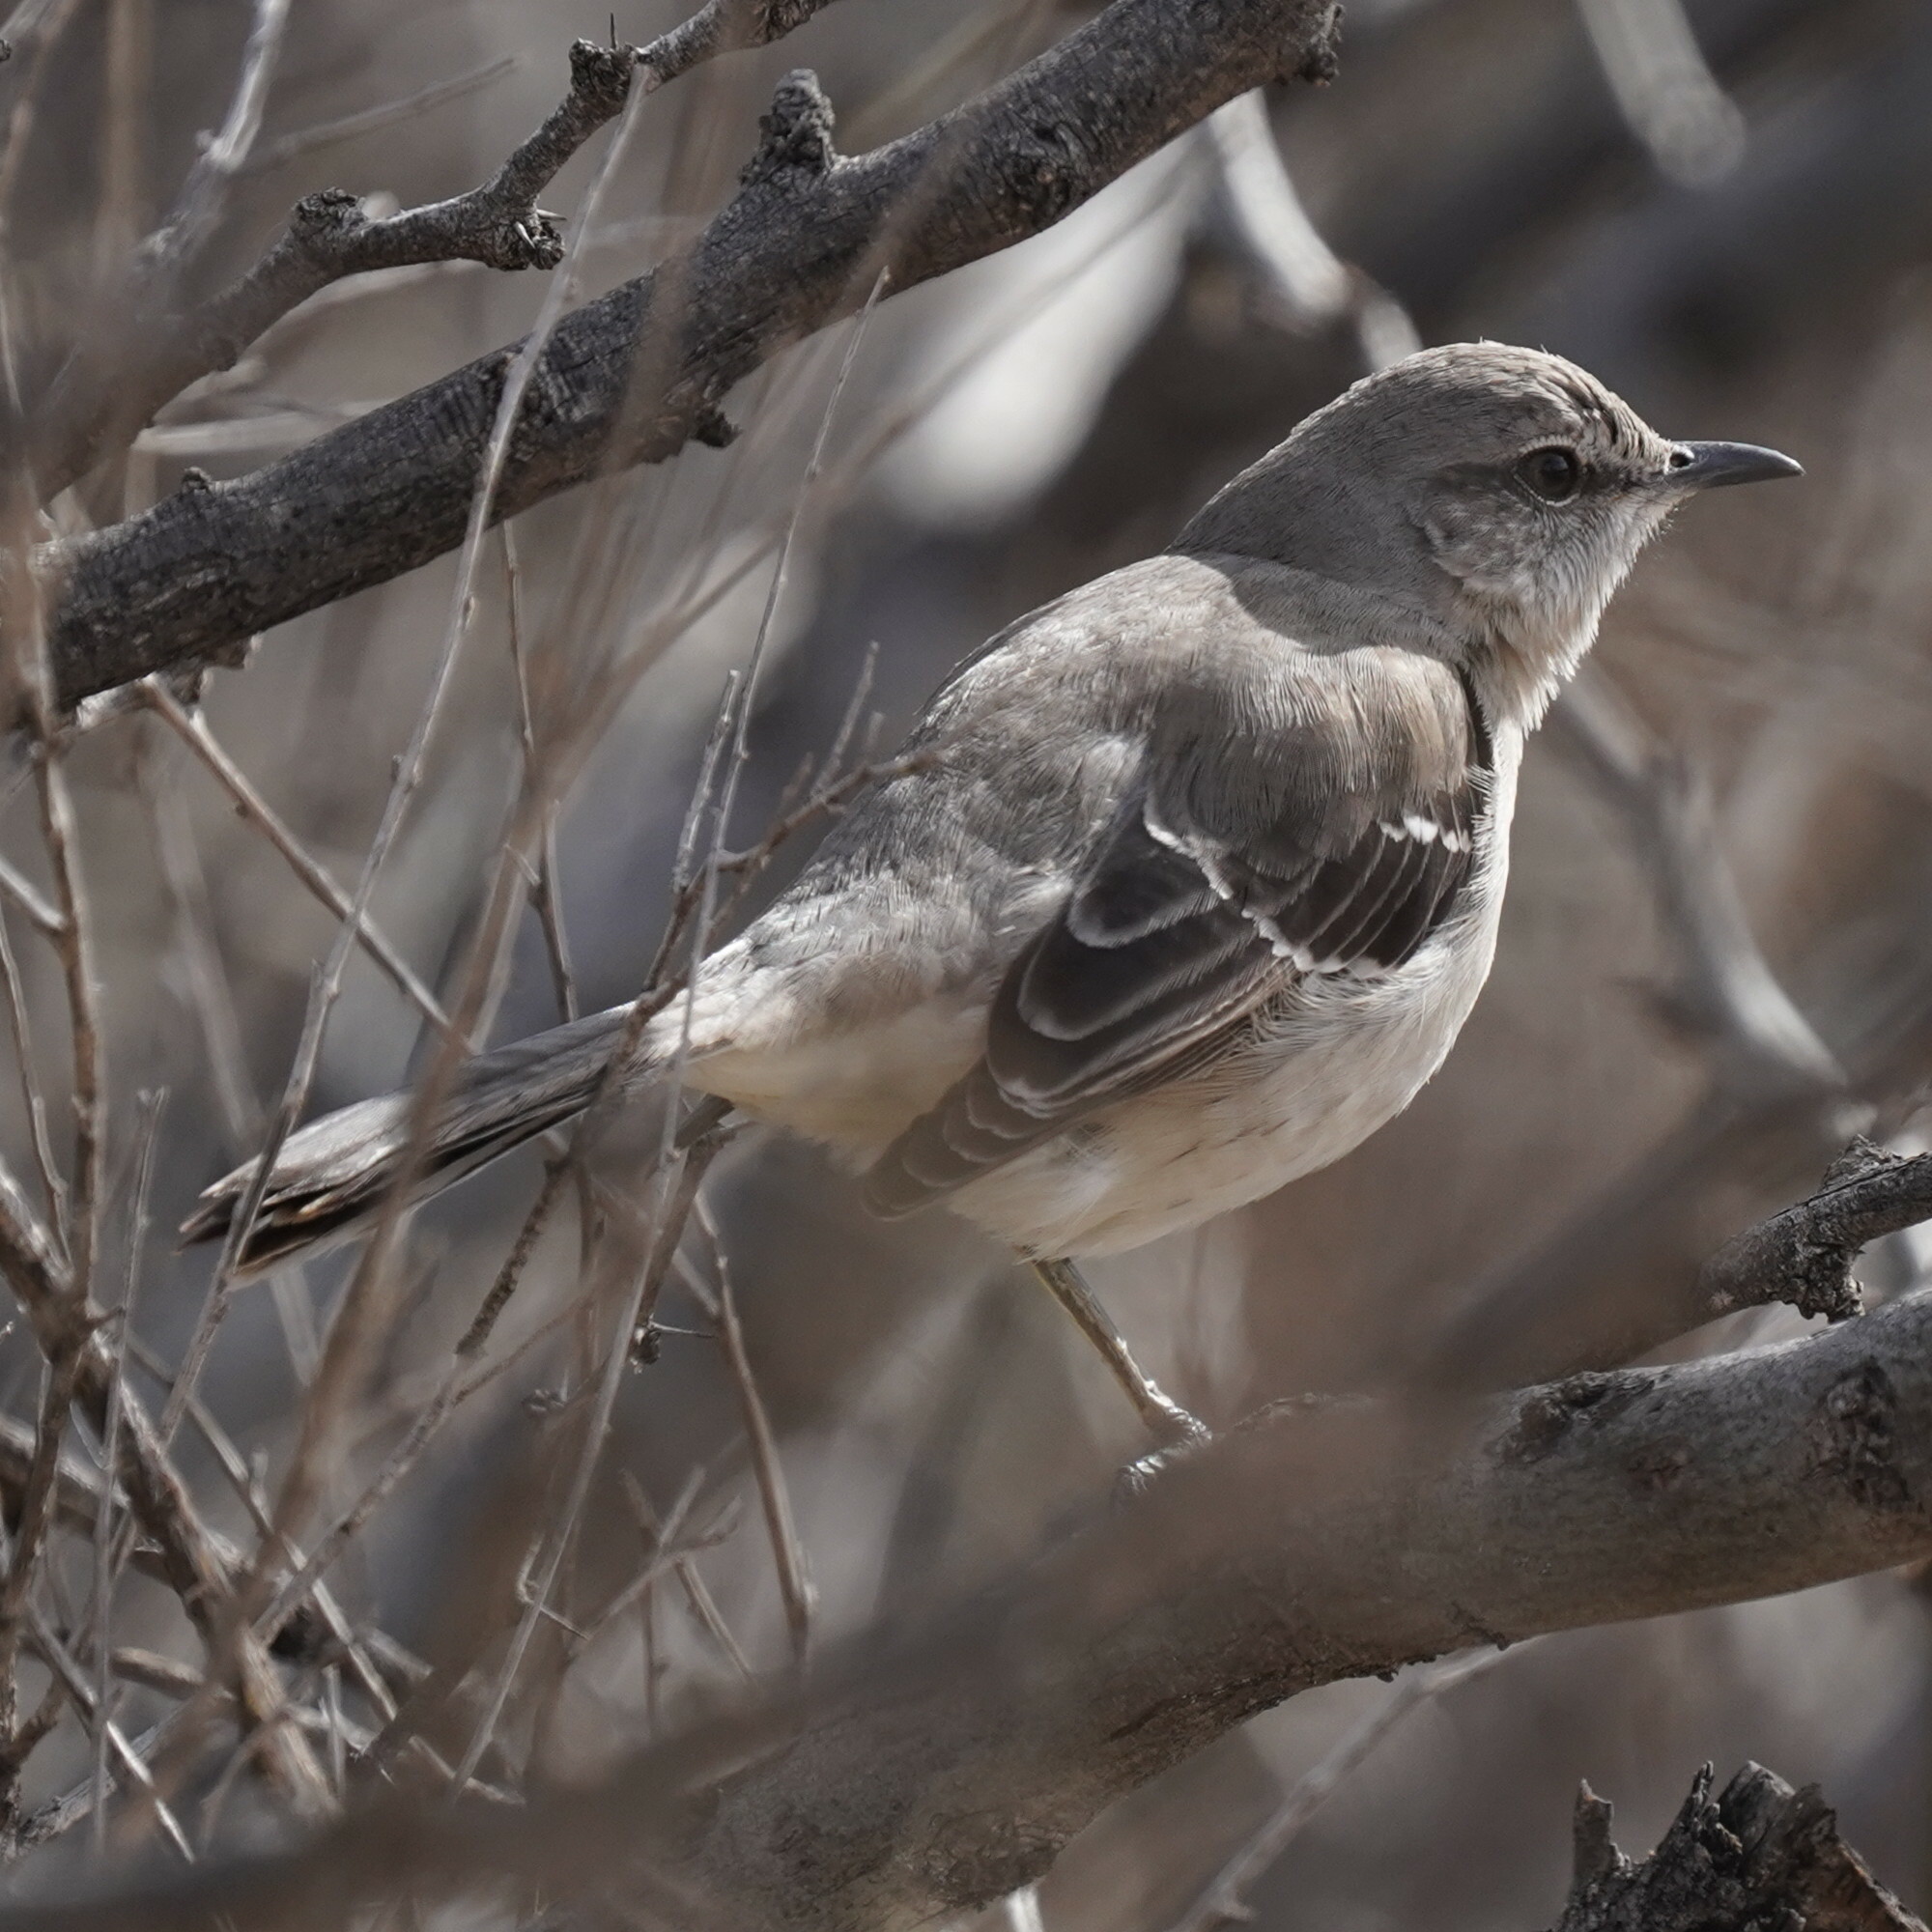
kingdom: Animalia
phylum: Chordata
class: Aves
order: Passeriformes
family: Mimidae
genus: Mimus
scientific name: Mimus polyglottos
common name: Northern mockingbird
